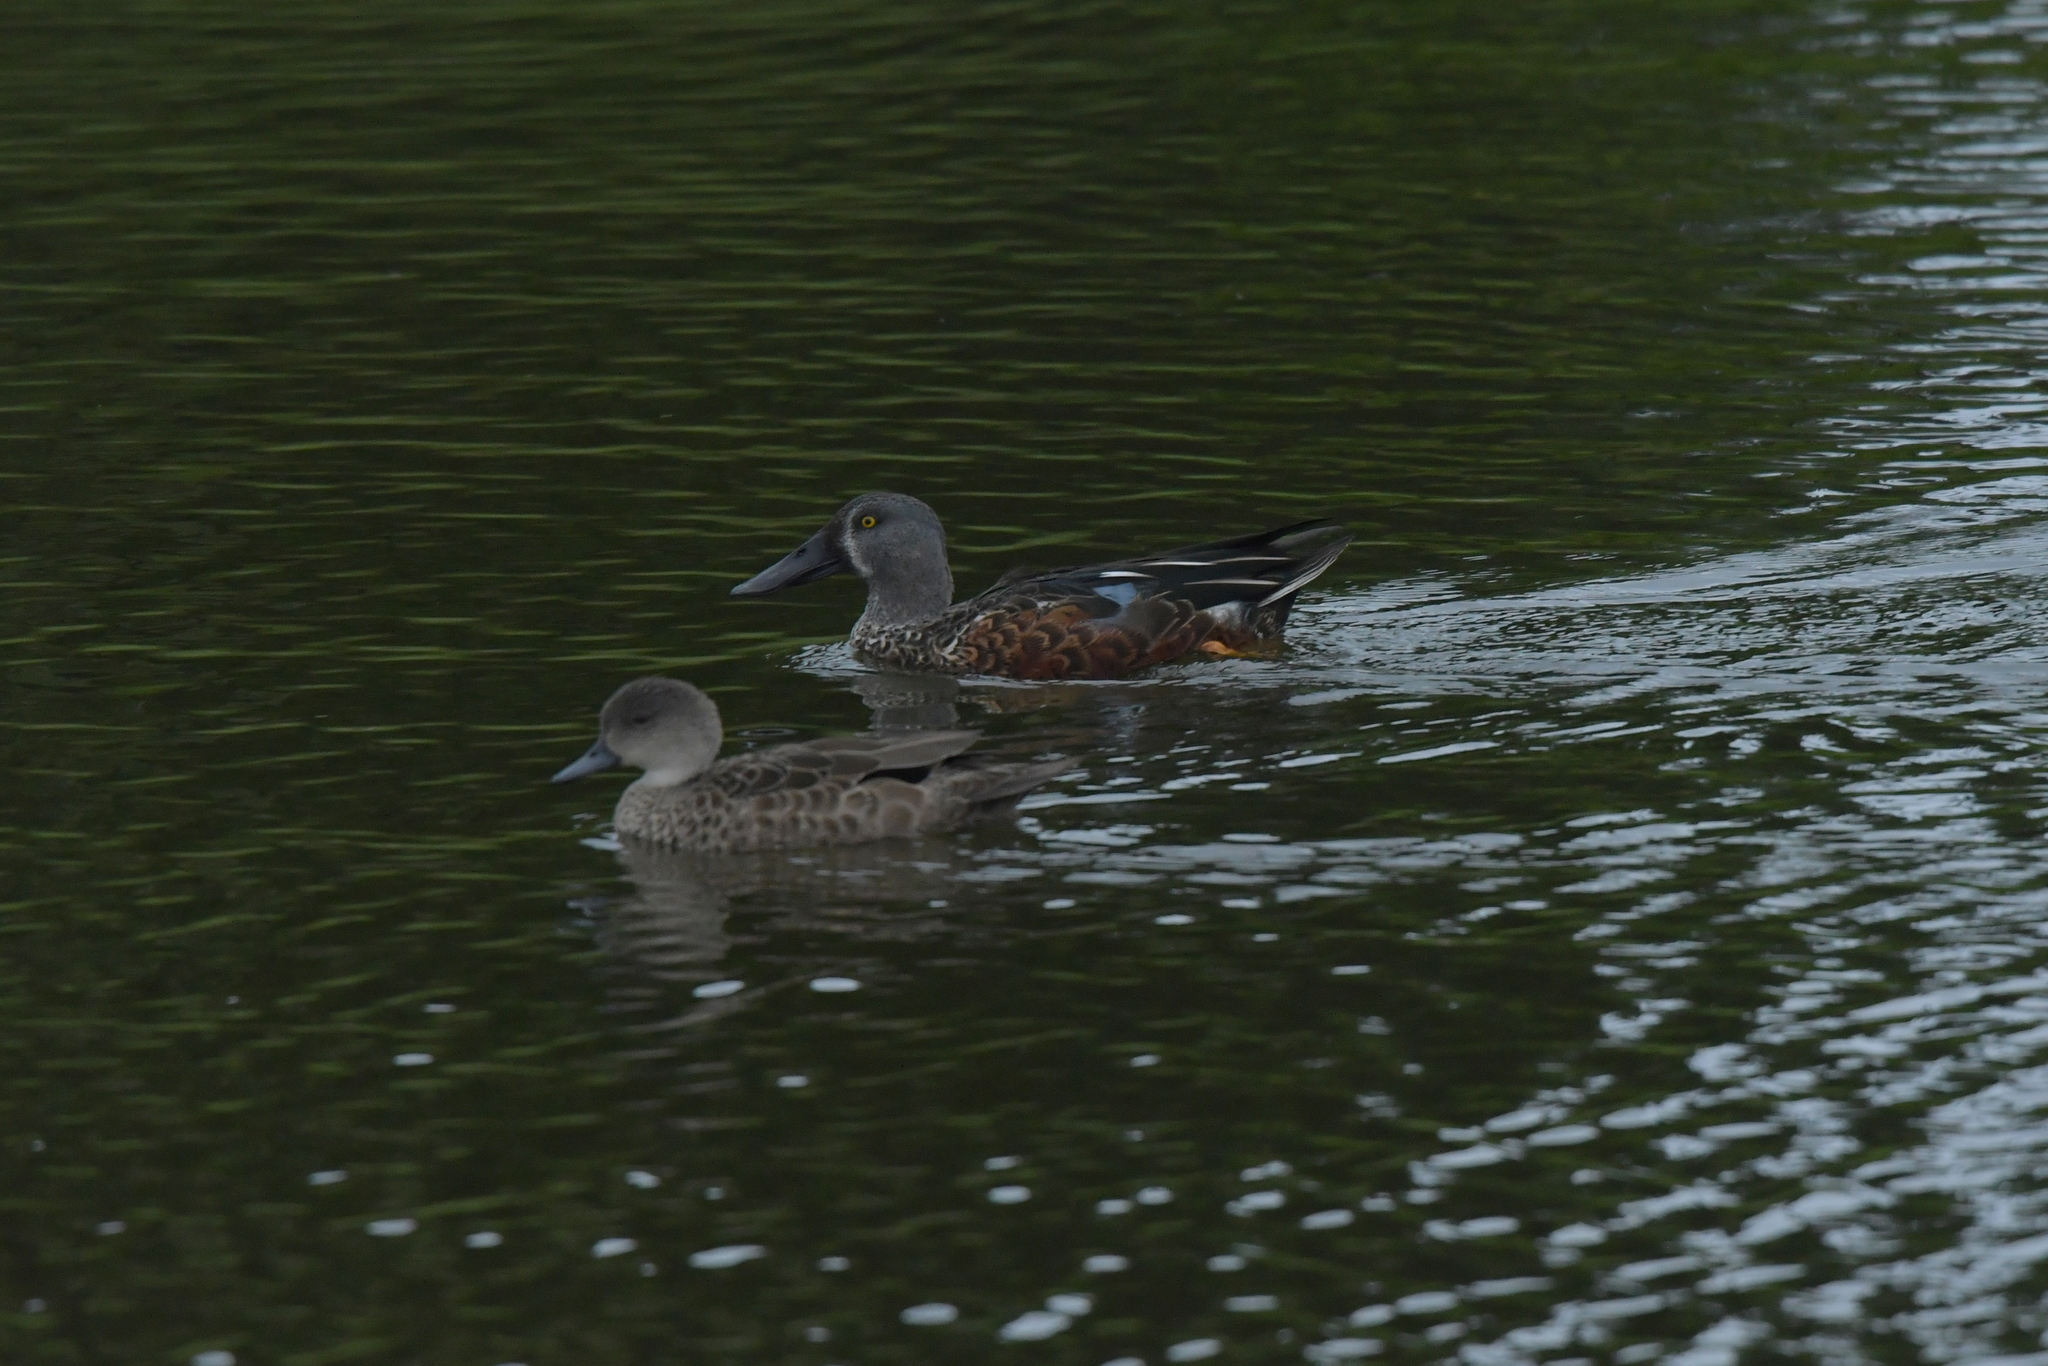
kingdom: Animalia
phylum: Chordata
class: Aves
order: Anseriformes
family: Anatidae
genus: Spatula
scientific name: Spatula rhynchotis
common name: Australian shoveler
